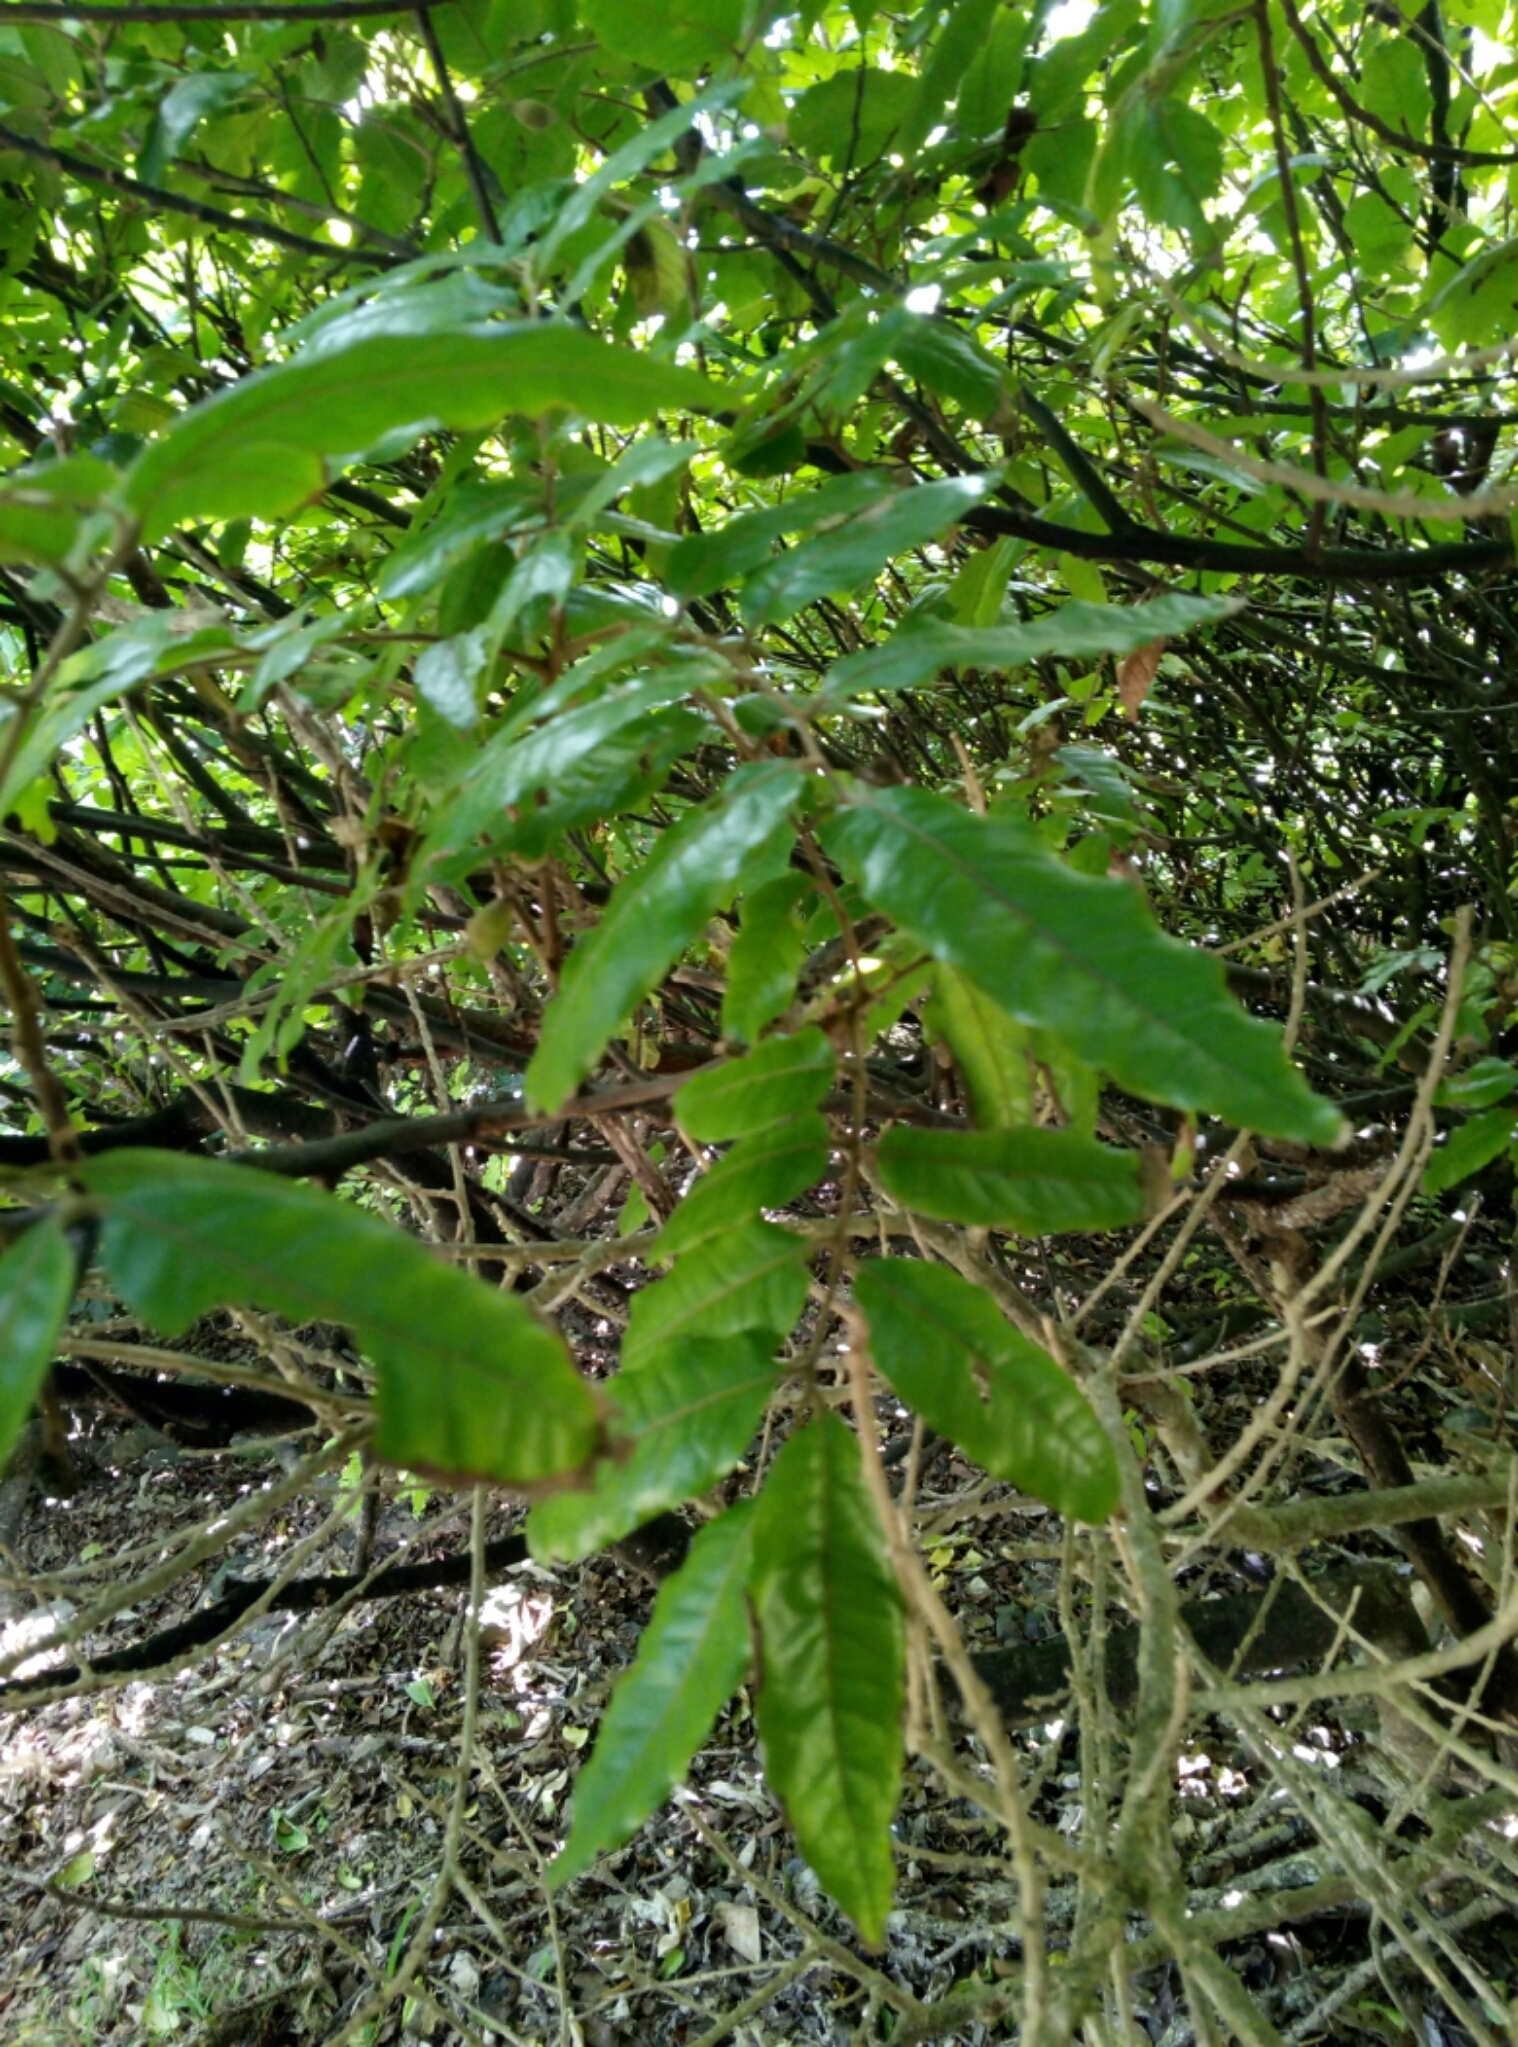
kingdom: Plantae
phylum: Tracheophyta
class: Magnoliopsida
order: Sapindales
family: Sapindaceae
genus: Alectryon
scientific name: Alectryon excelsus
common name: Three kings titoki
